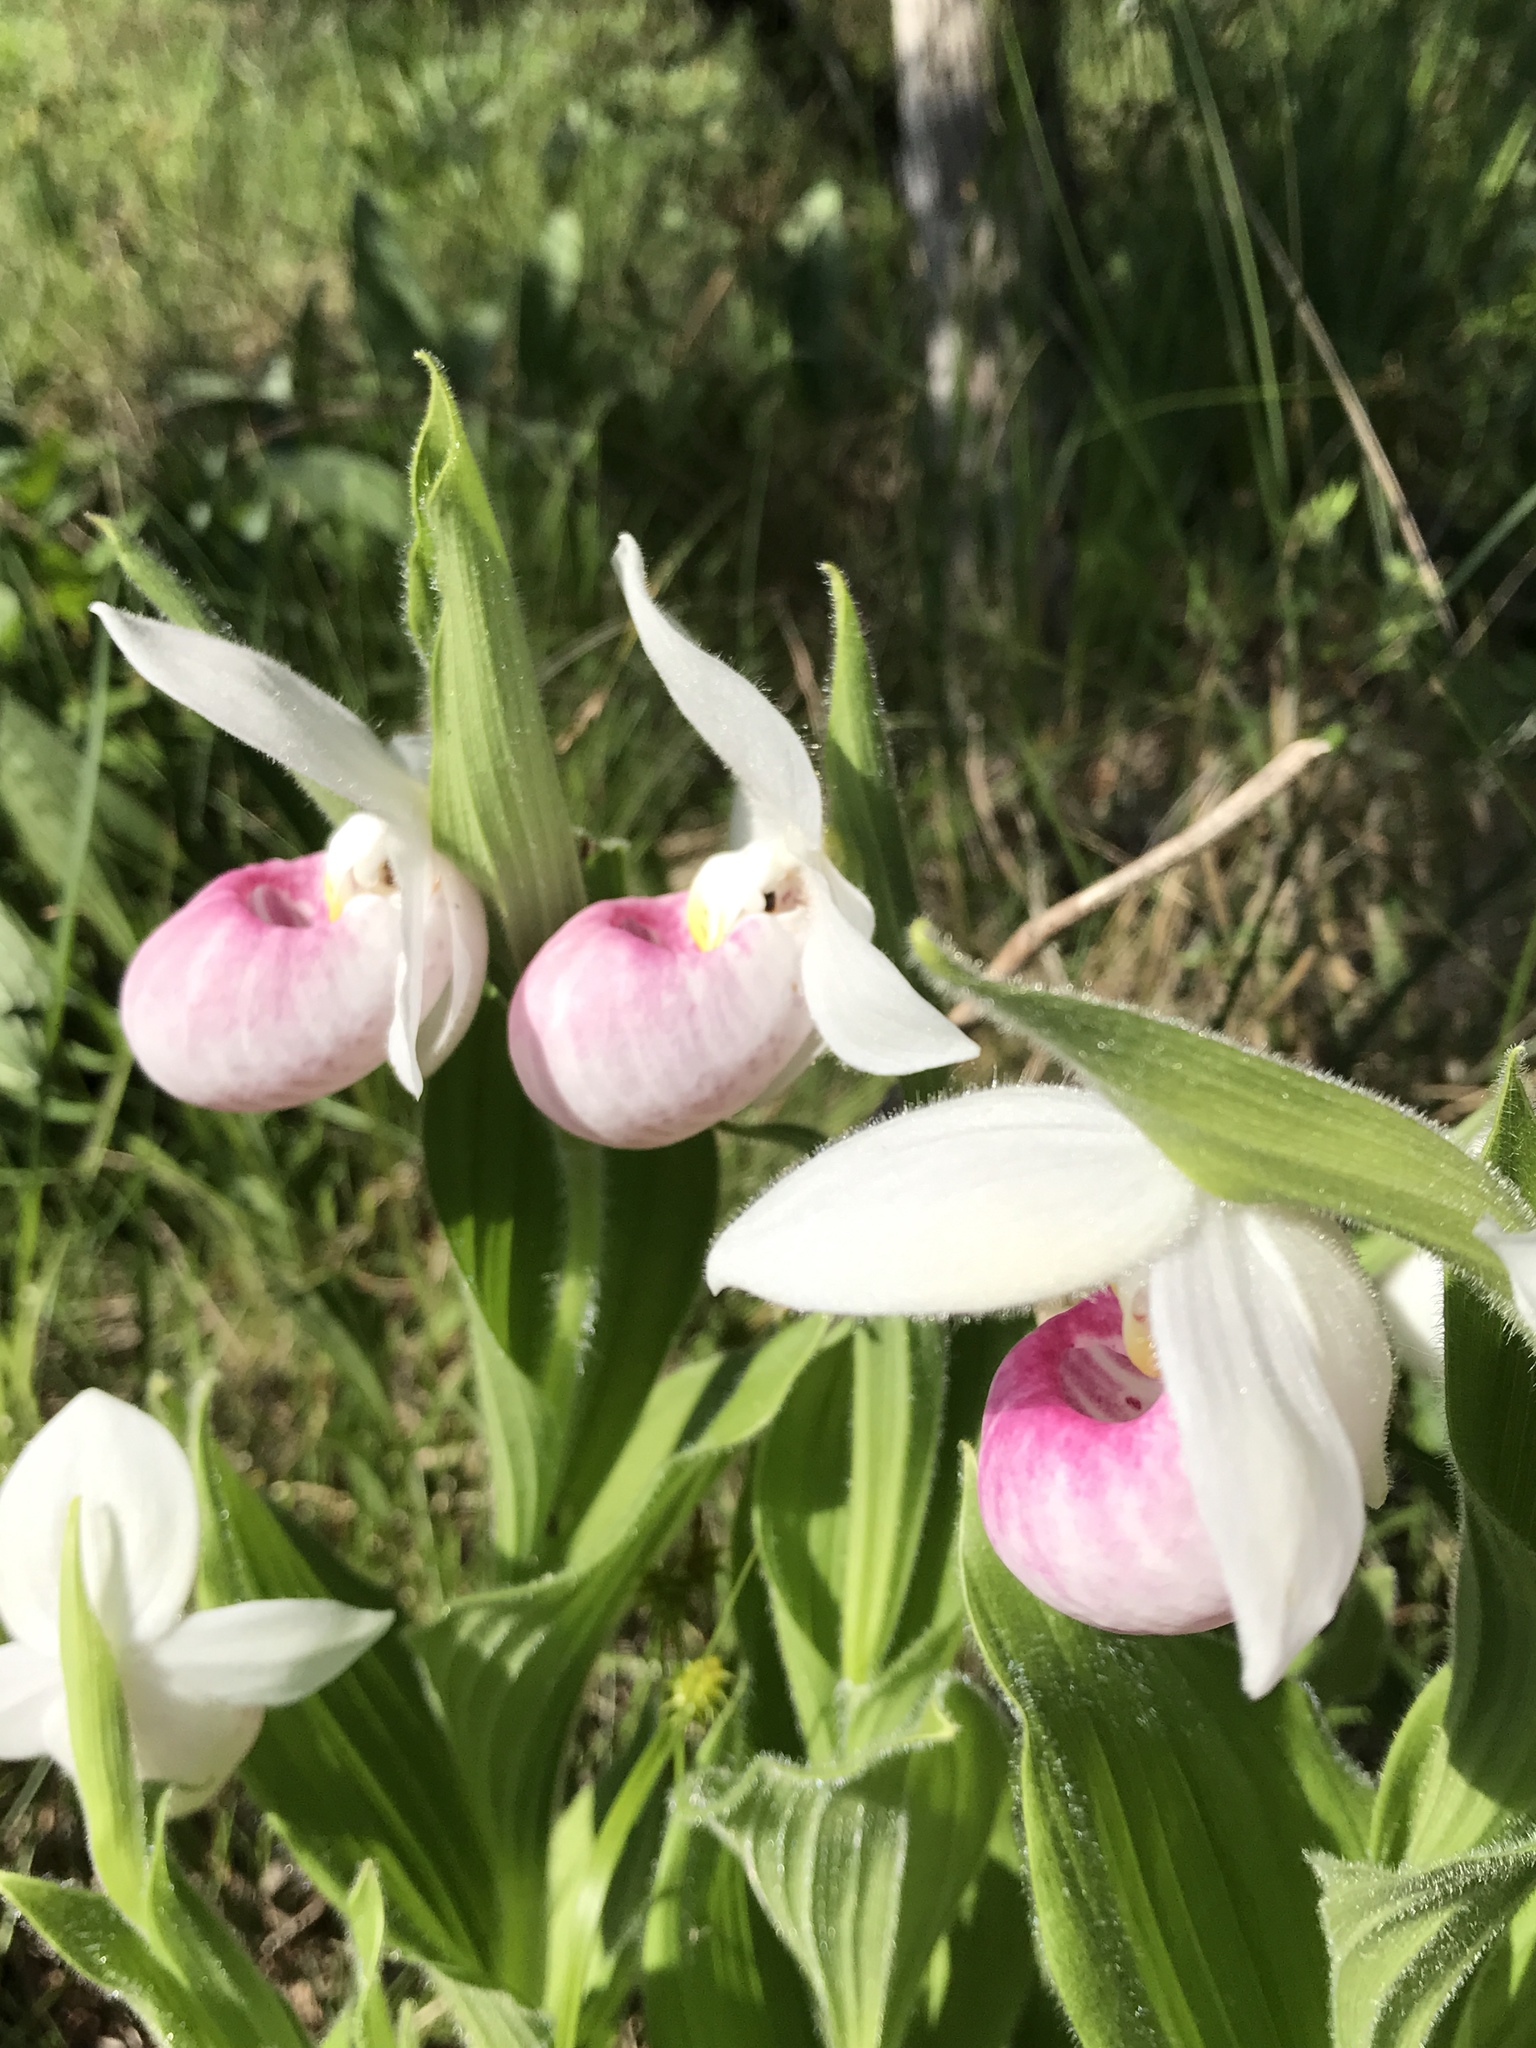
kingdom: Plantae
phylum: Tracheophyta
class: Liliopsida
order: Asparagales
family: Orchidaceae
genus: Cypripedium
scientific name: Cypripedium reginae
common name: Queen lady's-slipper
